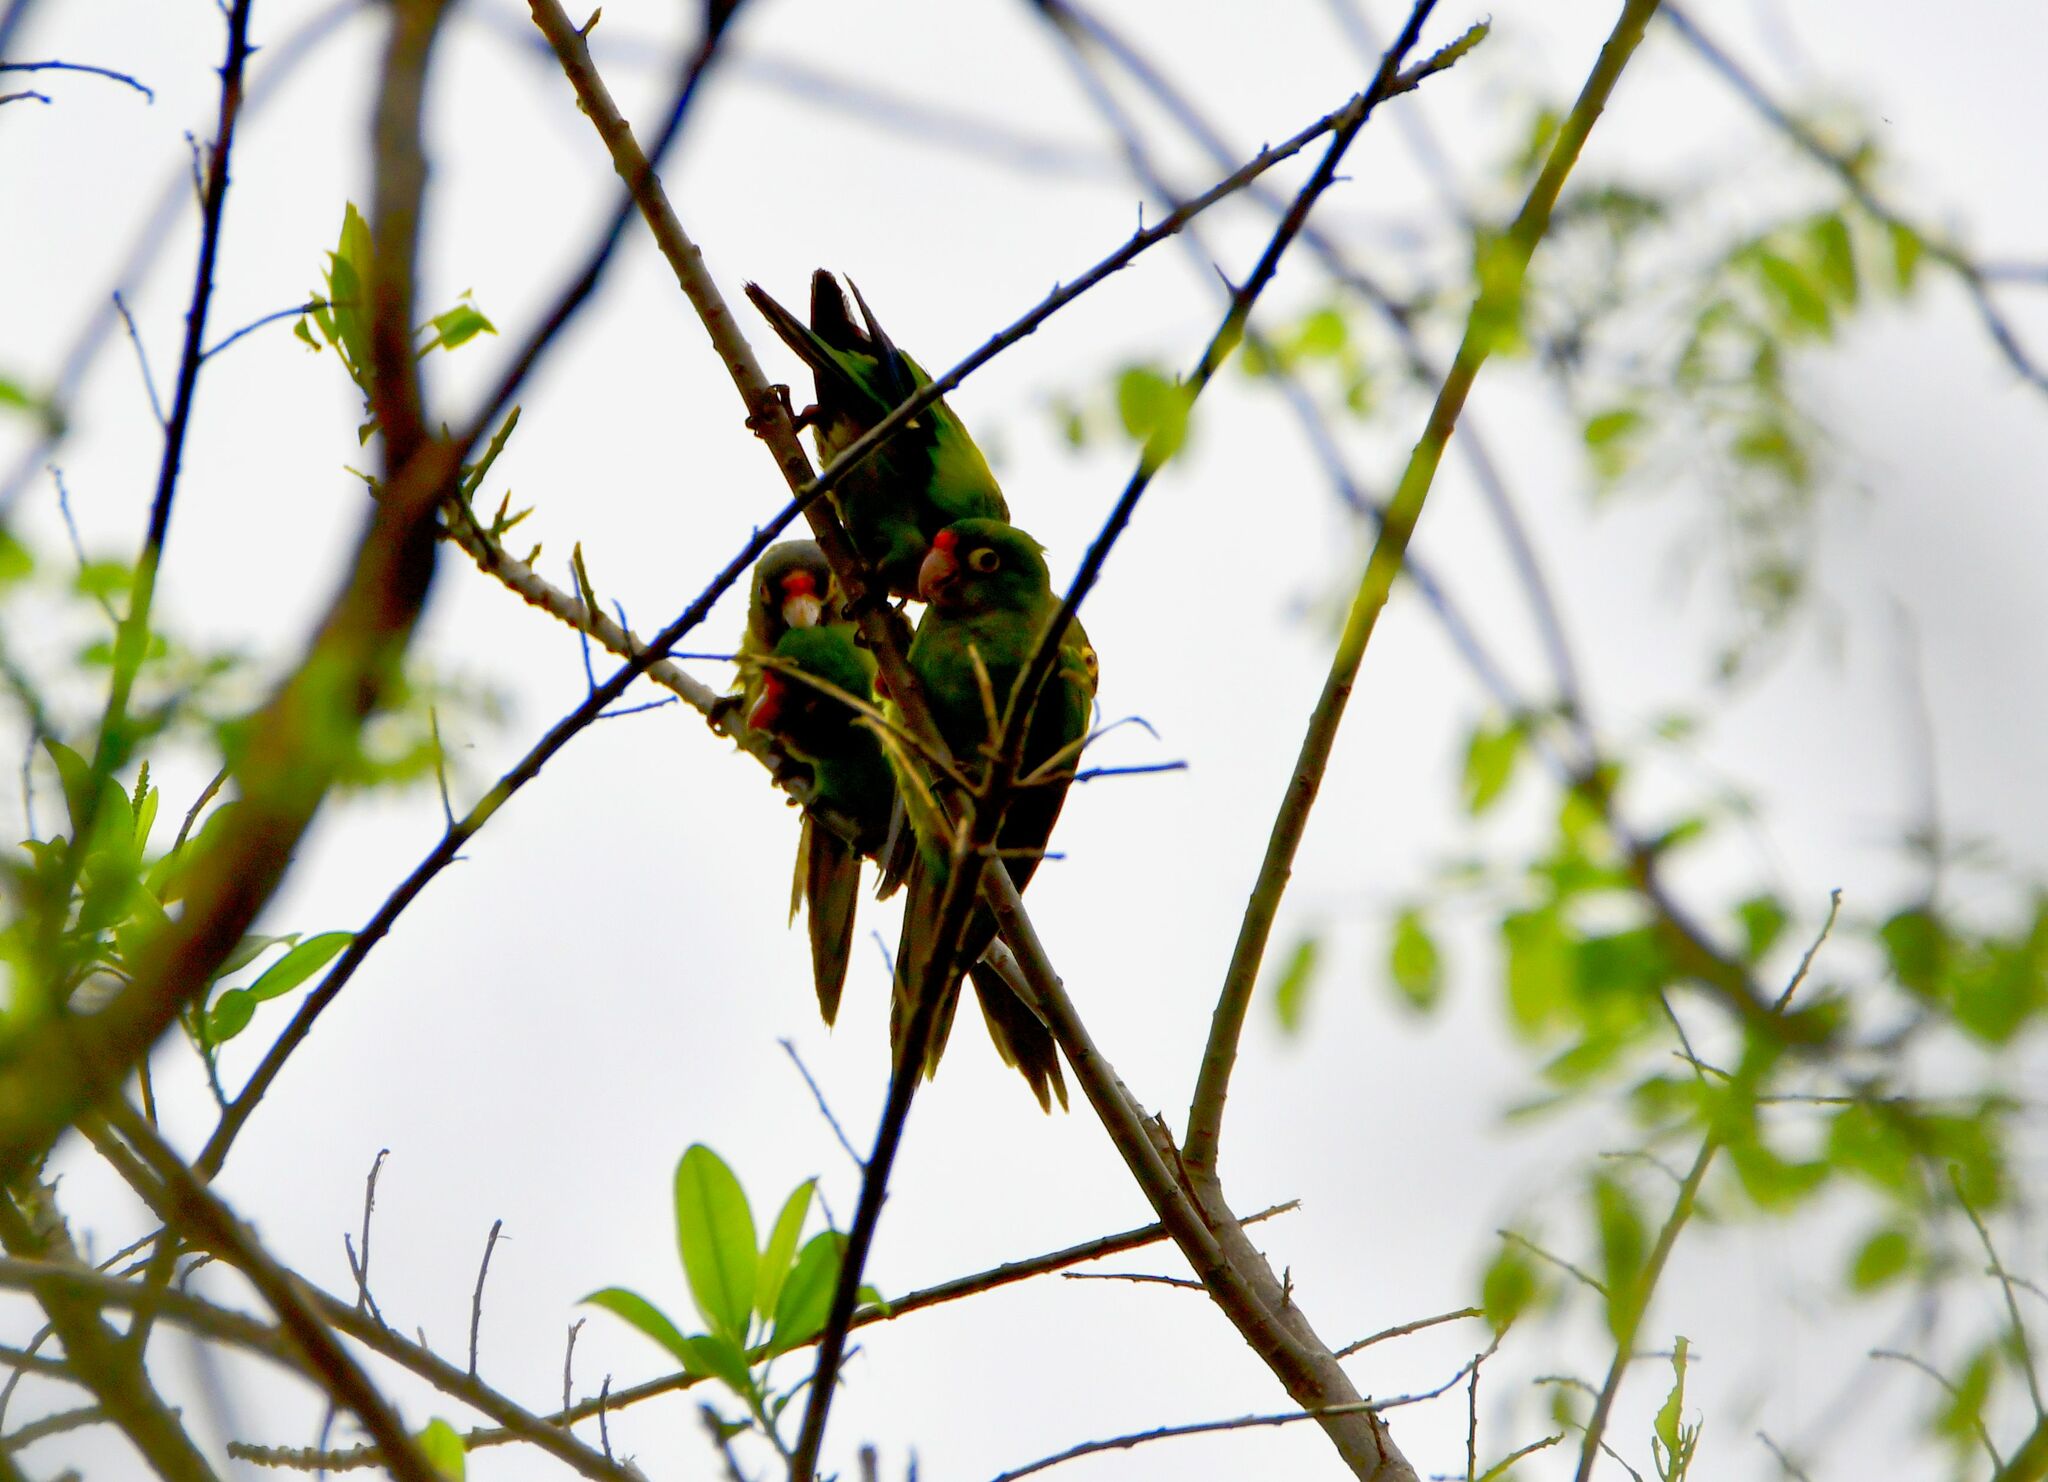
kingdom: Animalia
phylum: Chordata
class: Aves
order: Psittaciformes
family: Psittacidae
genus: Aratinga
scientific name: Aratinga canicularis
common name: Orange-fronted parakeet
